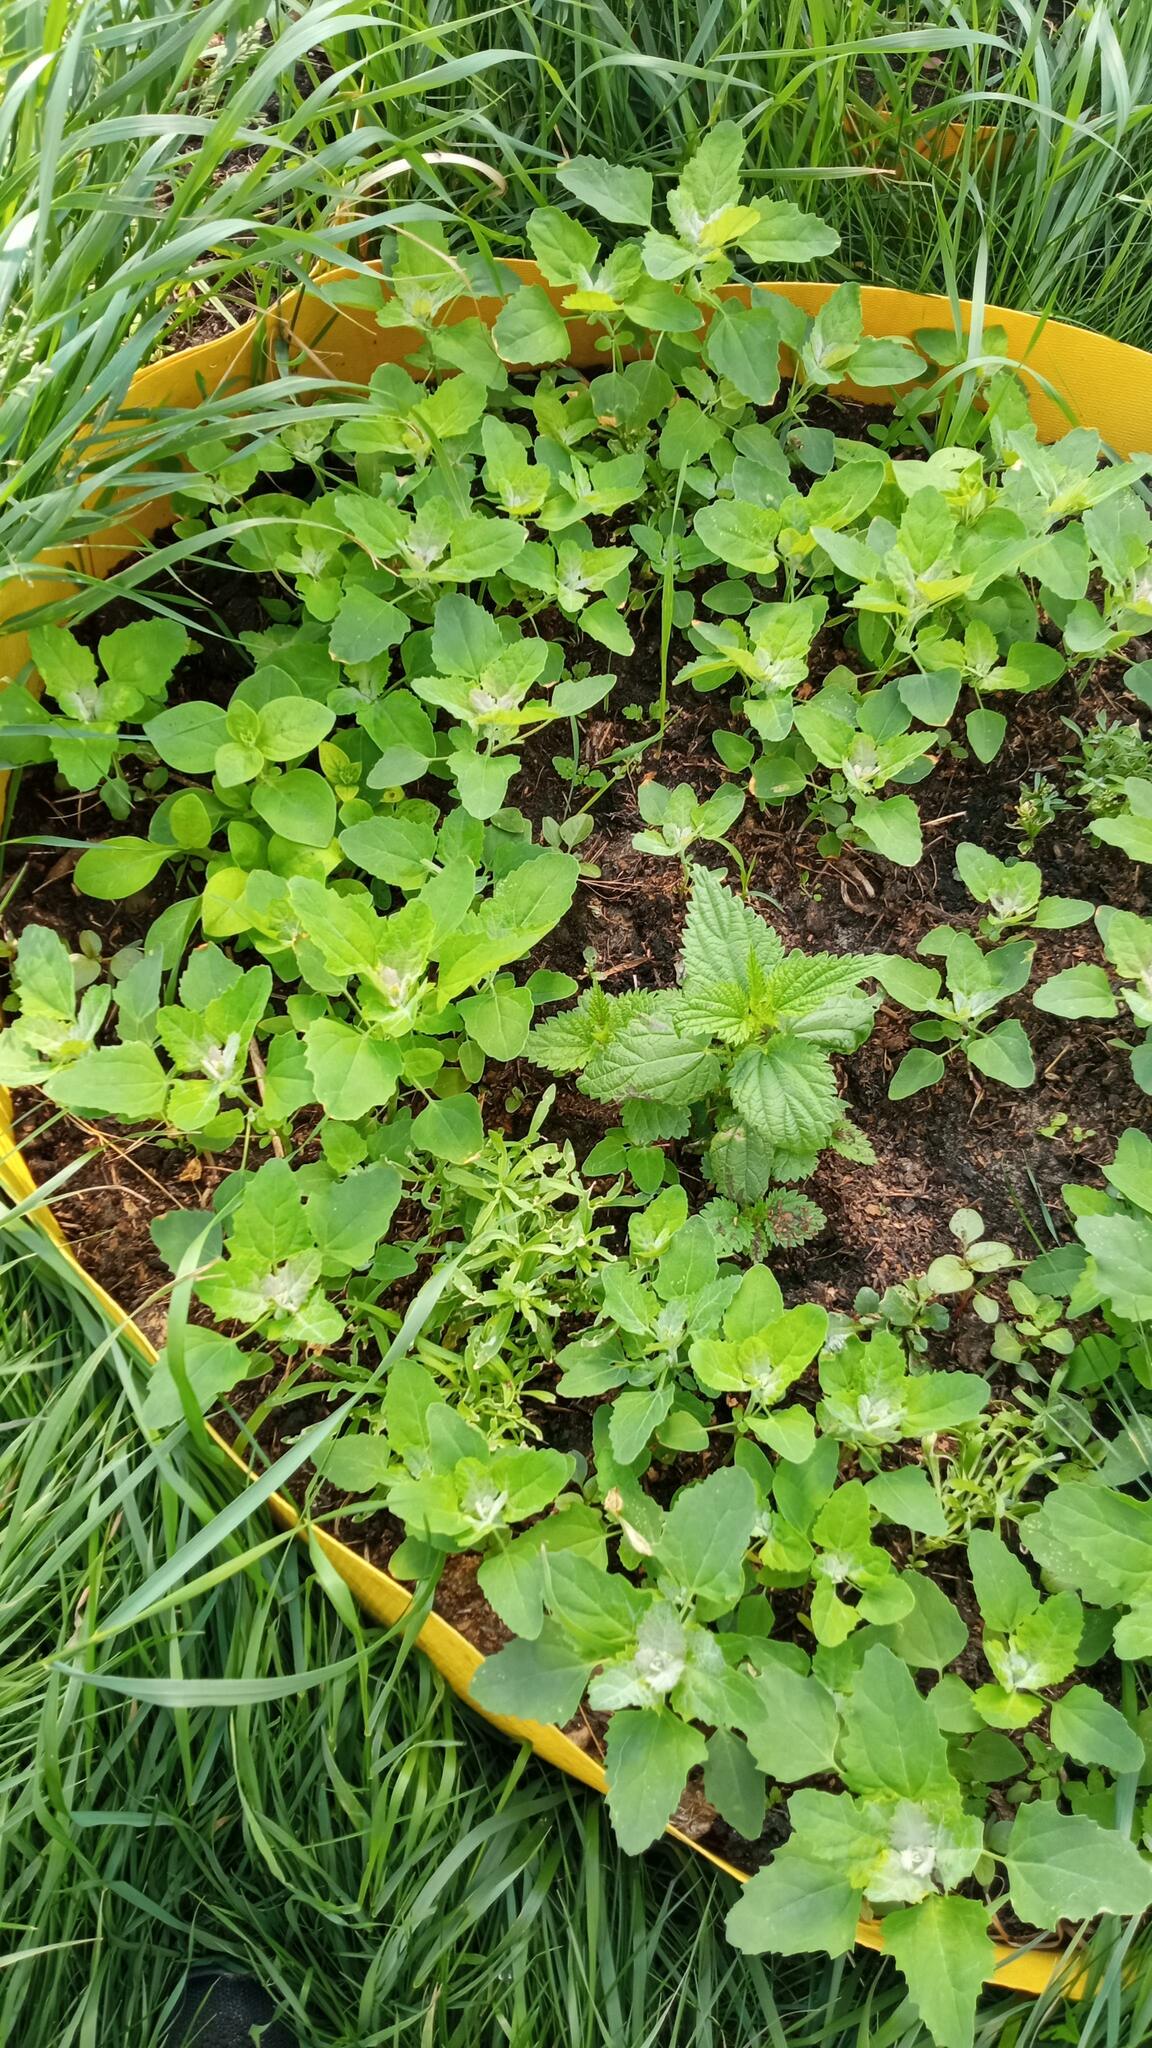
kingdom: Plantae
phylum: Tracheophyta
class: Magnoliopsida
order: Caryophyllales
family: Amaranthaceae
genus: Chenopodium
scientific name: Chenopodium album
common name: Fat-hen
